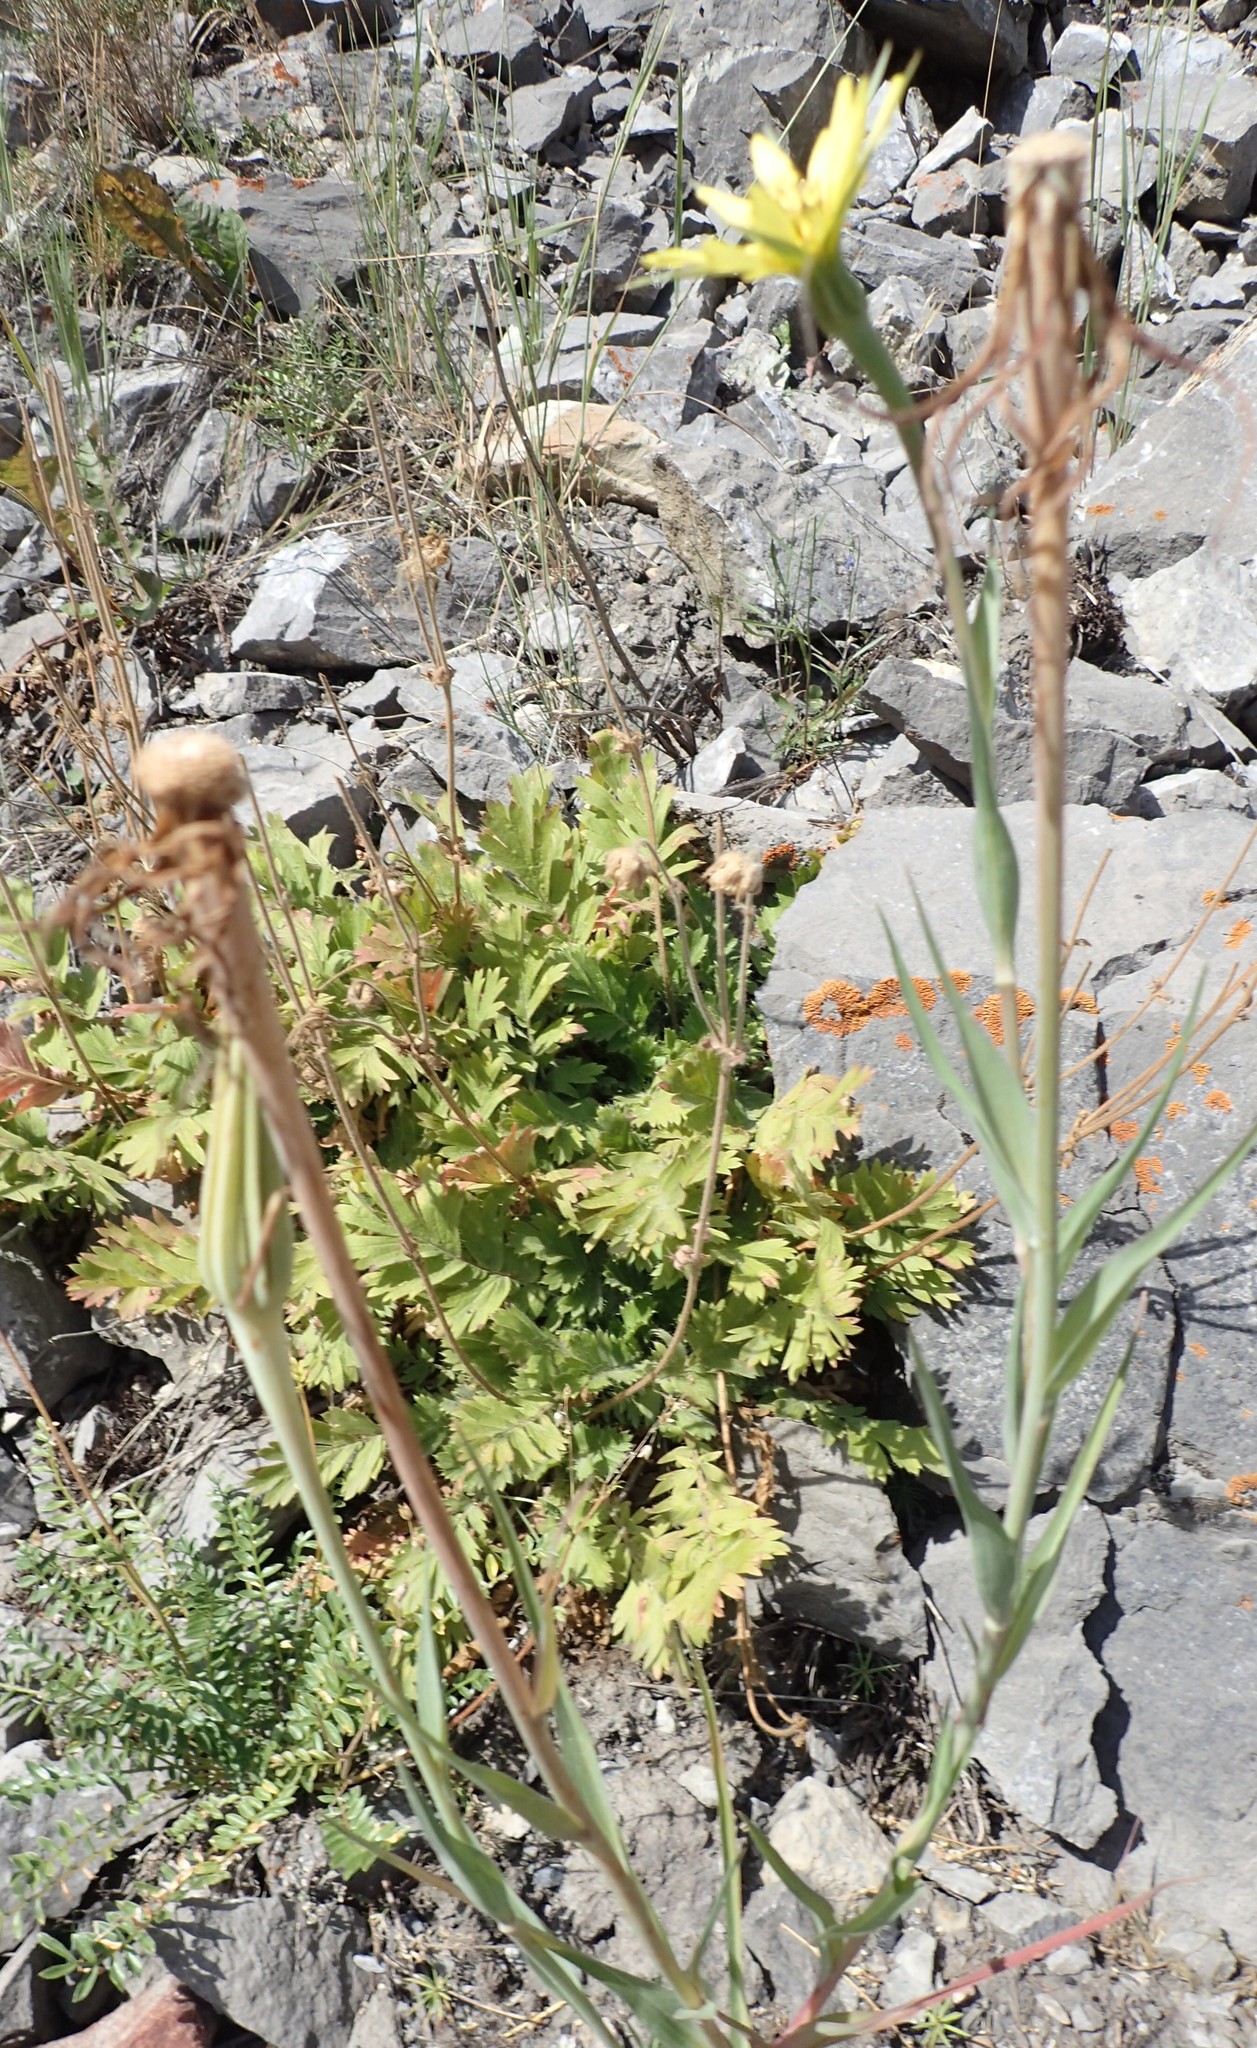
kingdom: Plantae
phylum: Tracheophyta
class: Magnoliopsida
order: Asterales
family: Asteraceae
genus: Tragopogon
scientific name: Tragopogon dubius
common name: Yellow salsify
